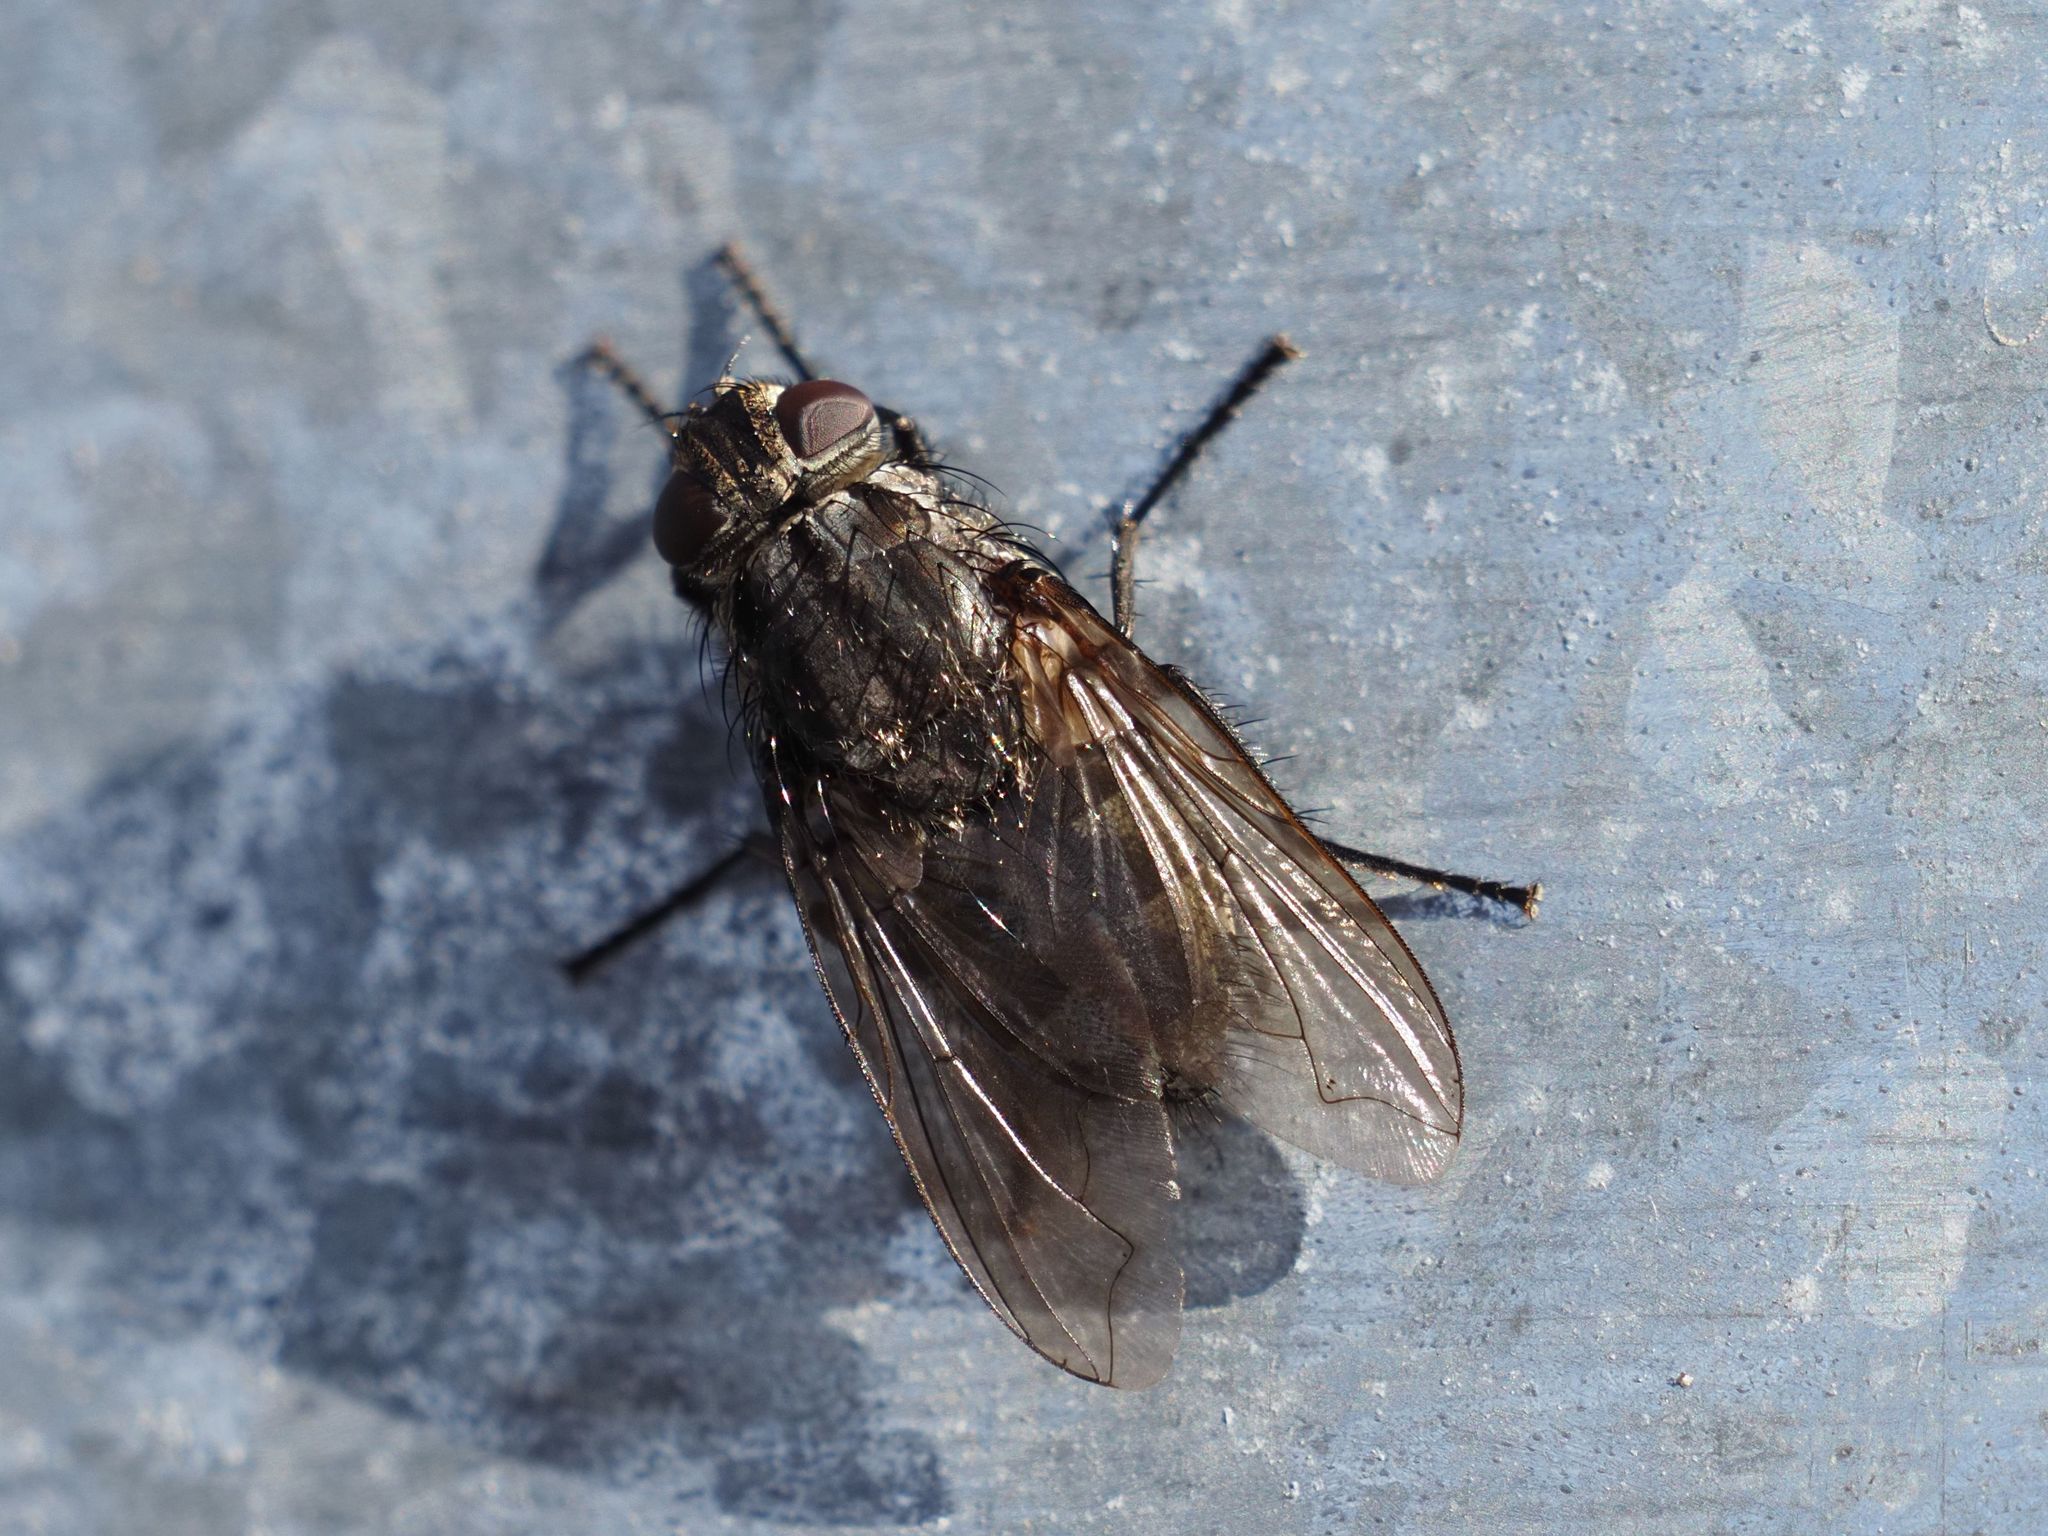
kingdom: Animalia
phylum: Arthropoda
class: Insecta
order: Diptera
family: Polleniidae
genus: Pollenia
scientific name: Pollenia vagabunda
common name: Vagabund cluster fly
